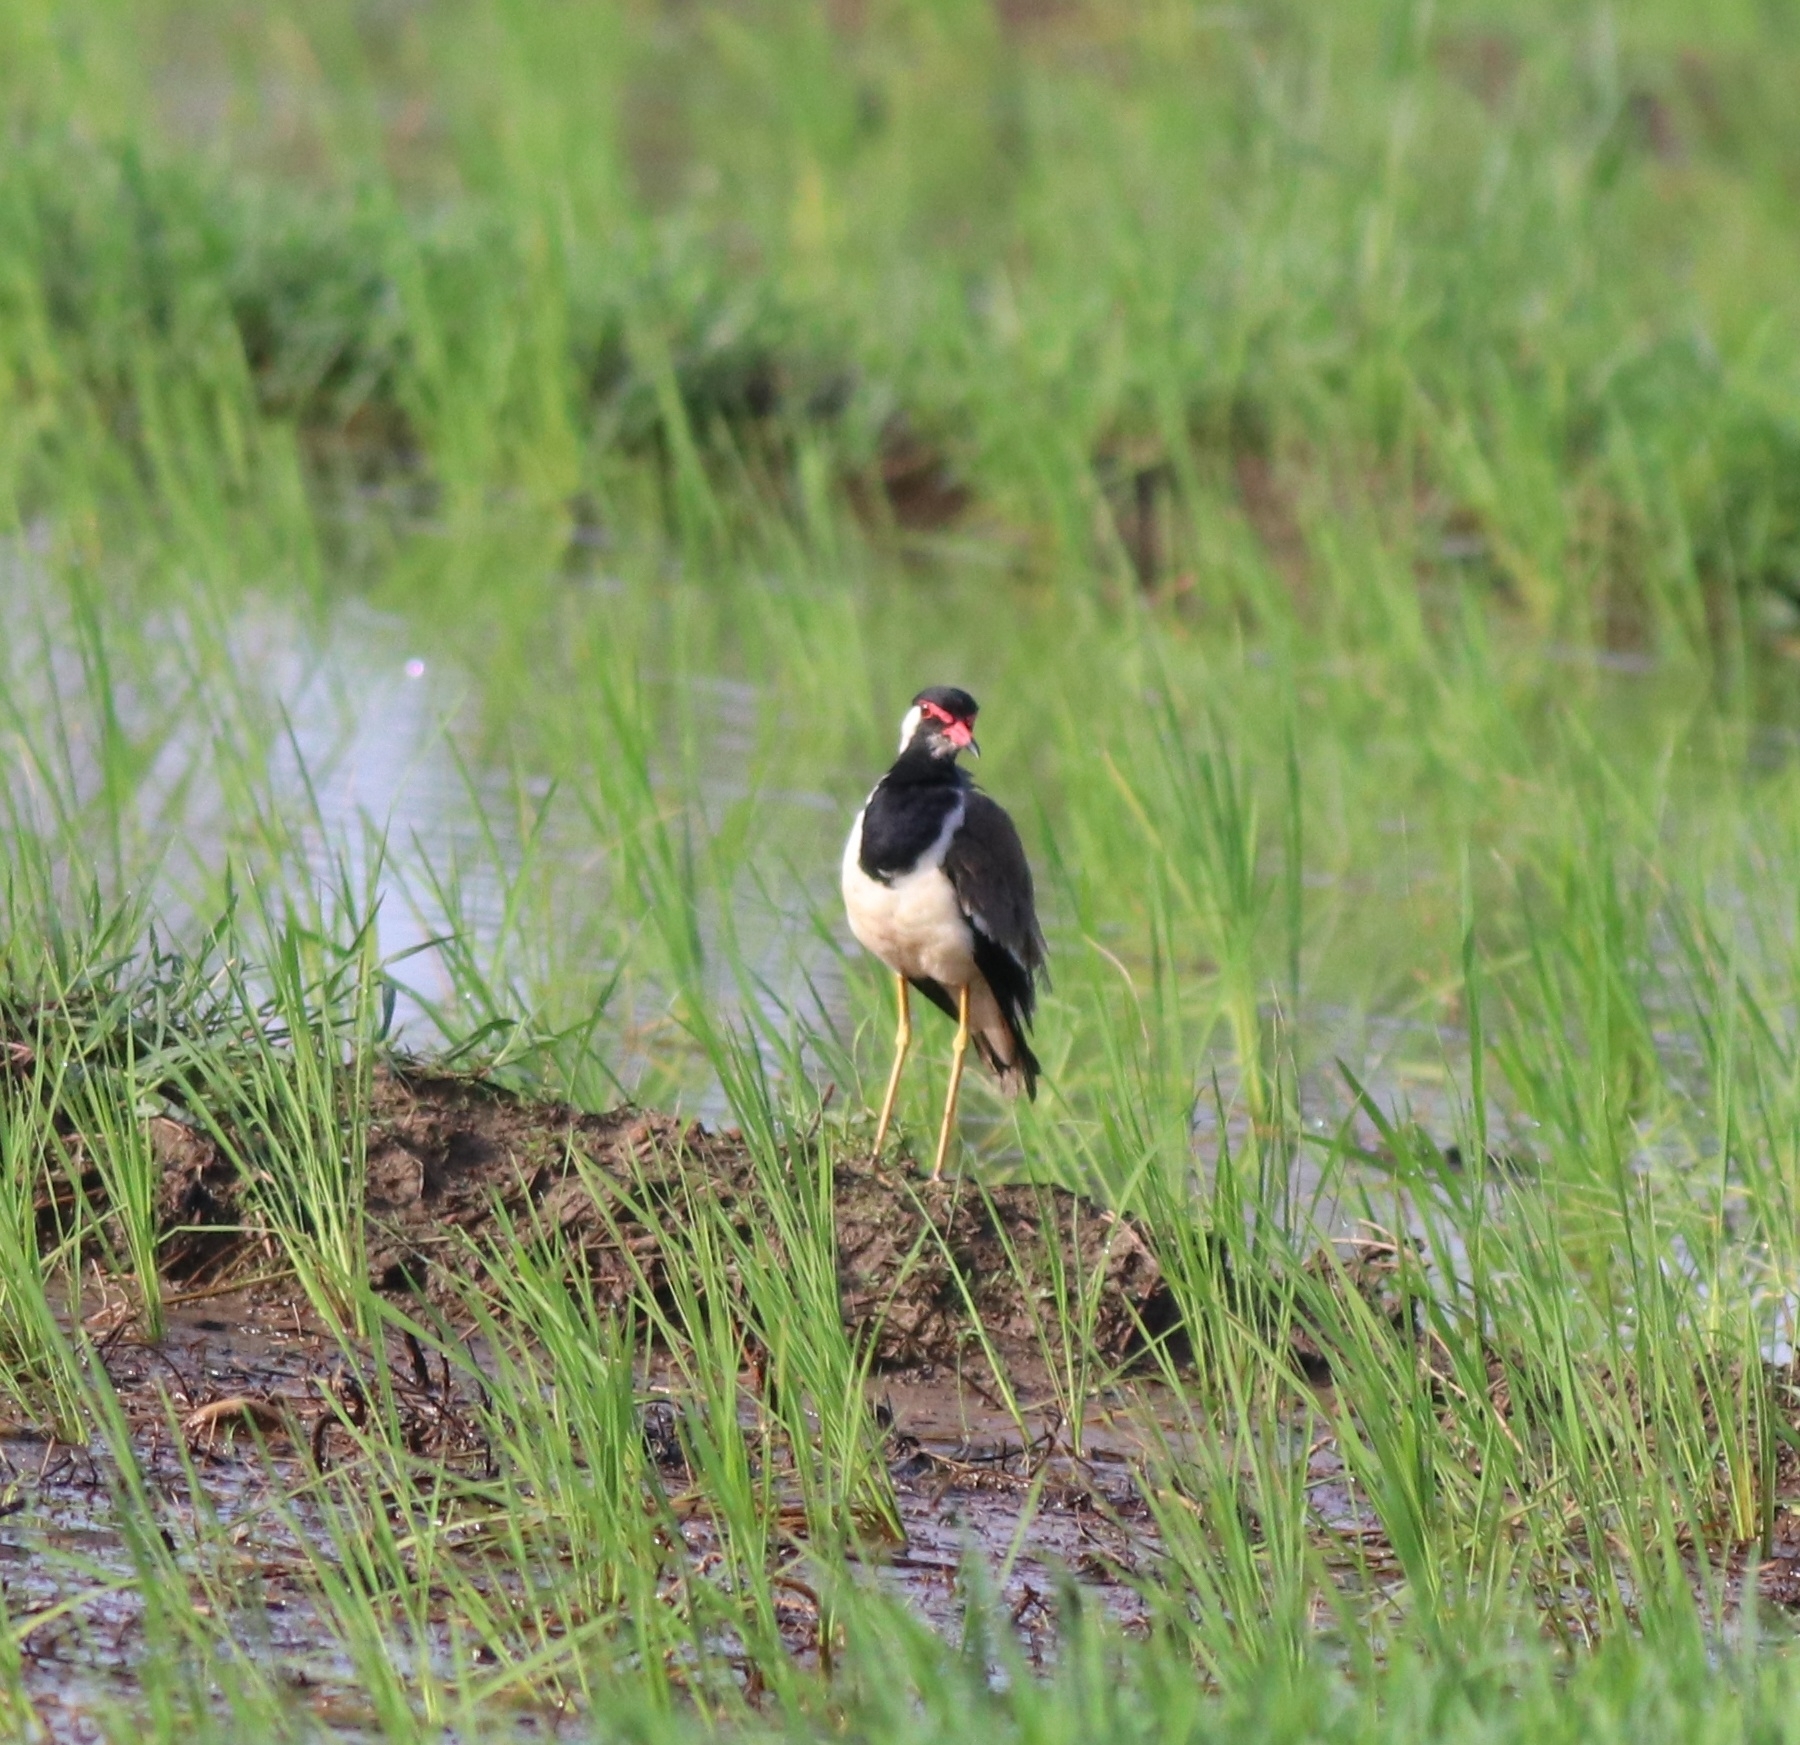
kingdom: Animalia
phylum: Chordata
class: Aves
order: Charadriiformes
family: Charadriidae
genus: Vanellus
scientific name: Vanellus indicus
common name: Red-wattled lapwing
